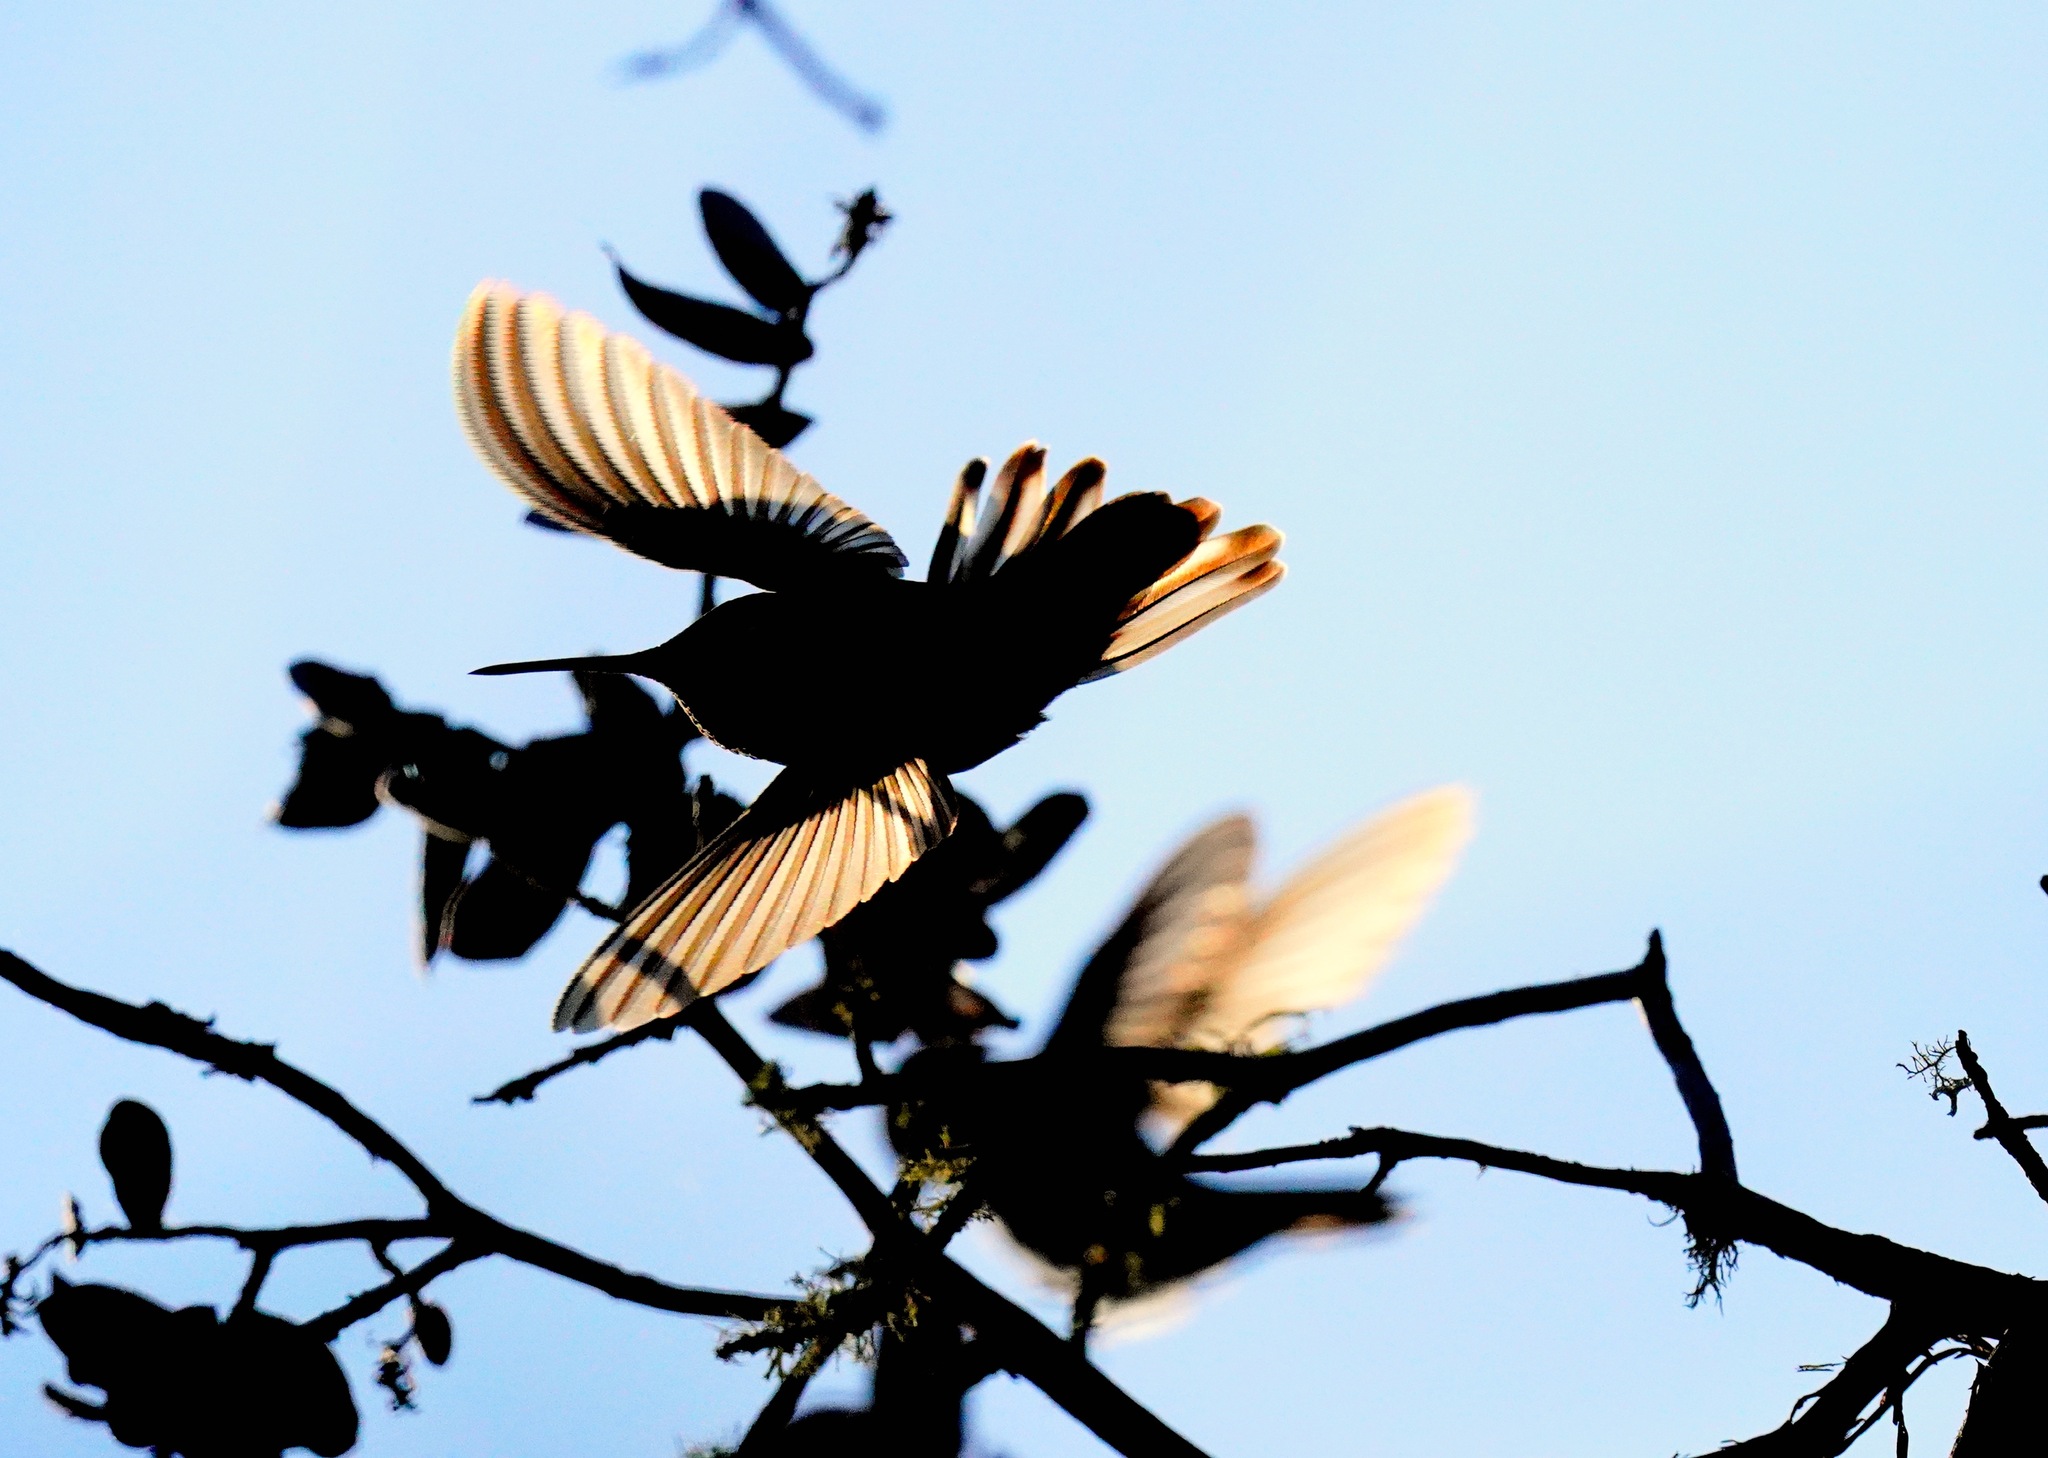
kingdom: Animalia
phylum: Chordata
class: Aves
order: Apodiformes
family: Trochilidae
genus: Calypte
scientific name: Calypte anna
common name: Anna's hummingbird
